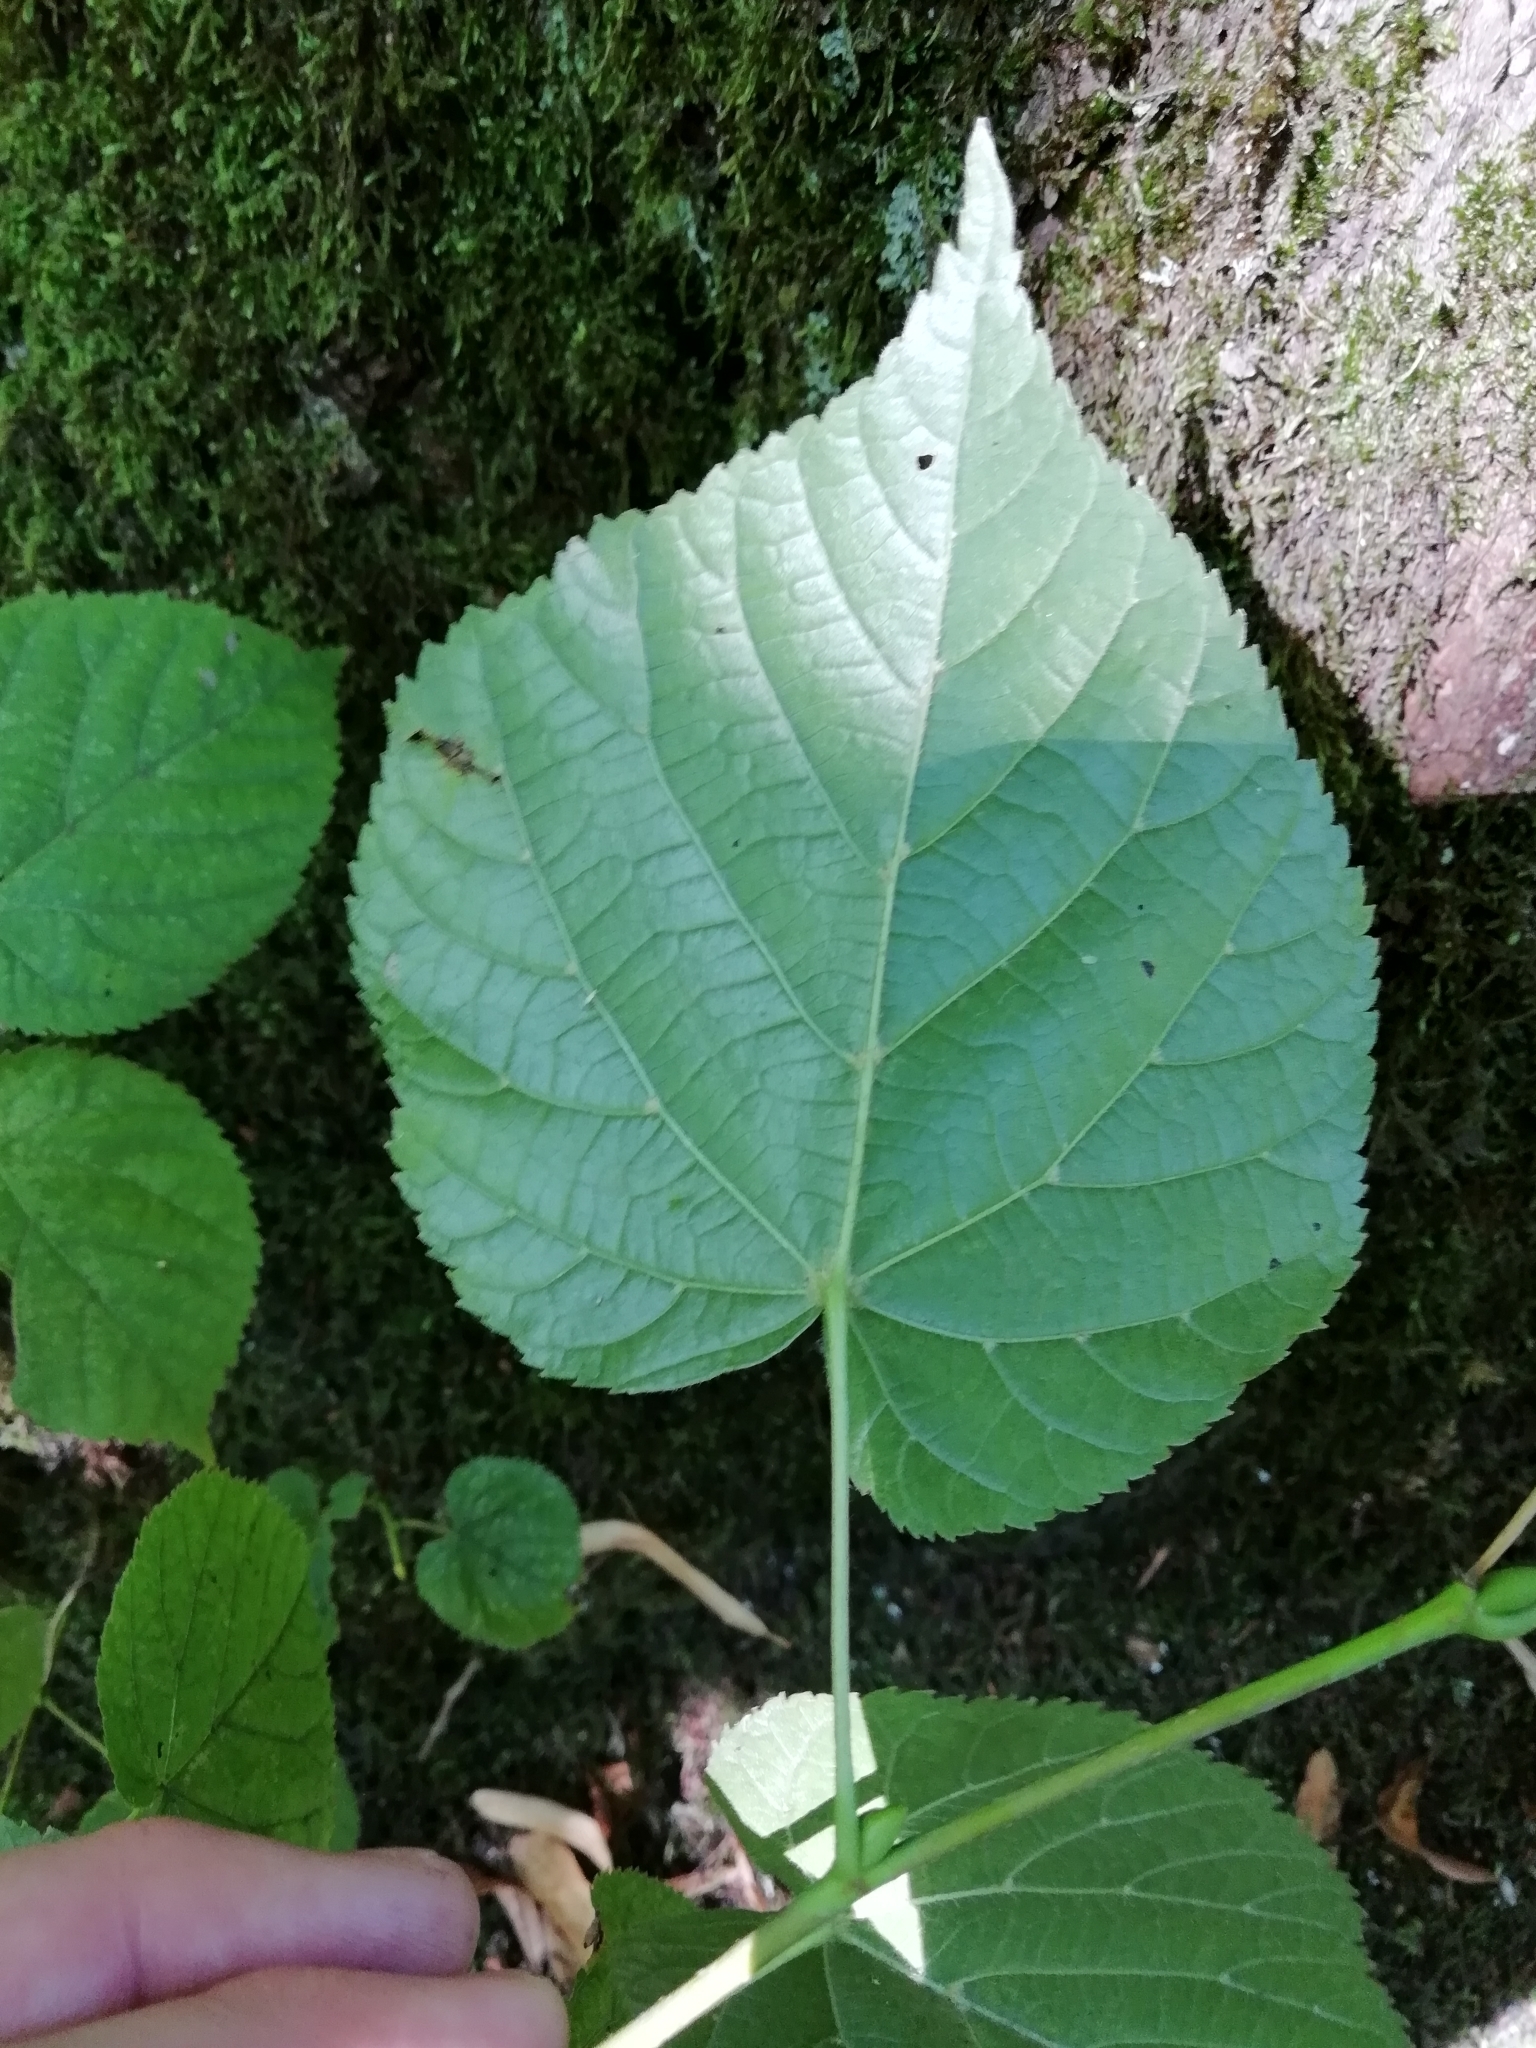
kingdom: Plantae
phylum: Tracheophyta
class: Magnoliopsida
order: Malvales
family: Malvaceae
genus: Tilia
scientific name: Tilia europaea
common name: European linden
